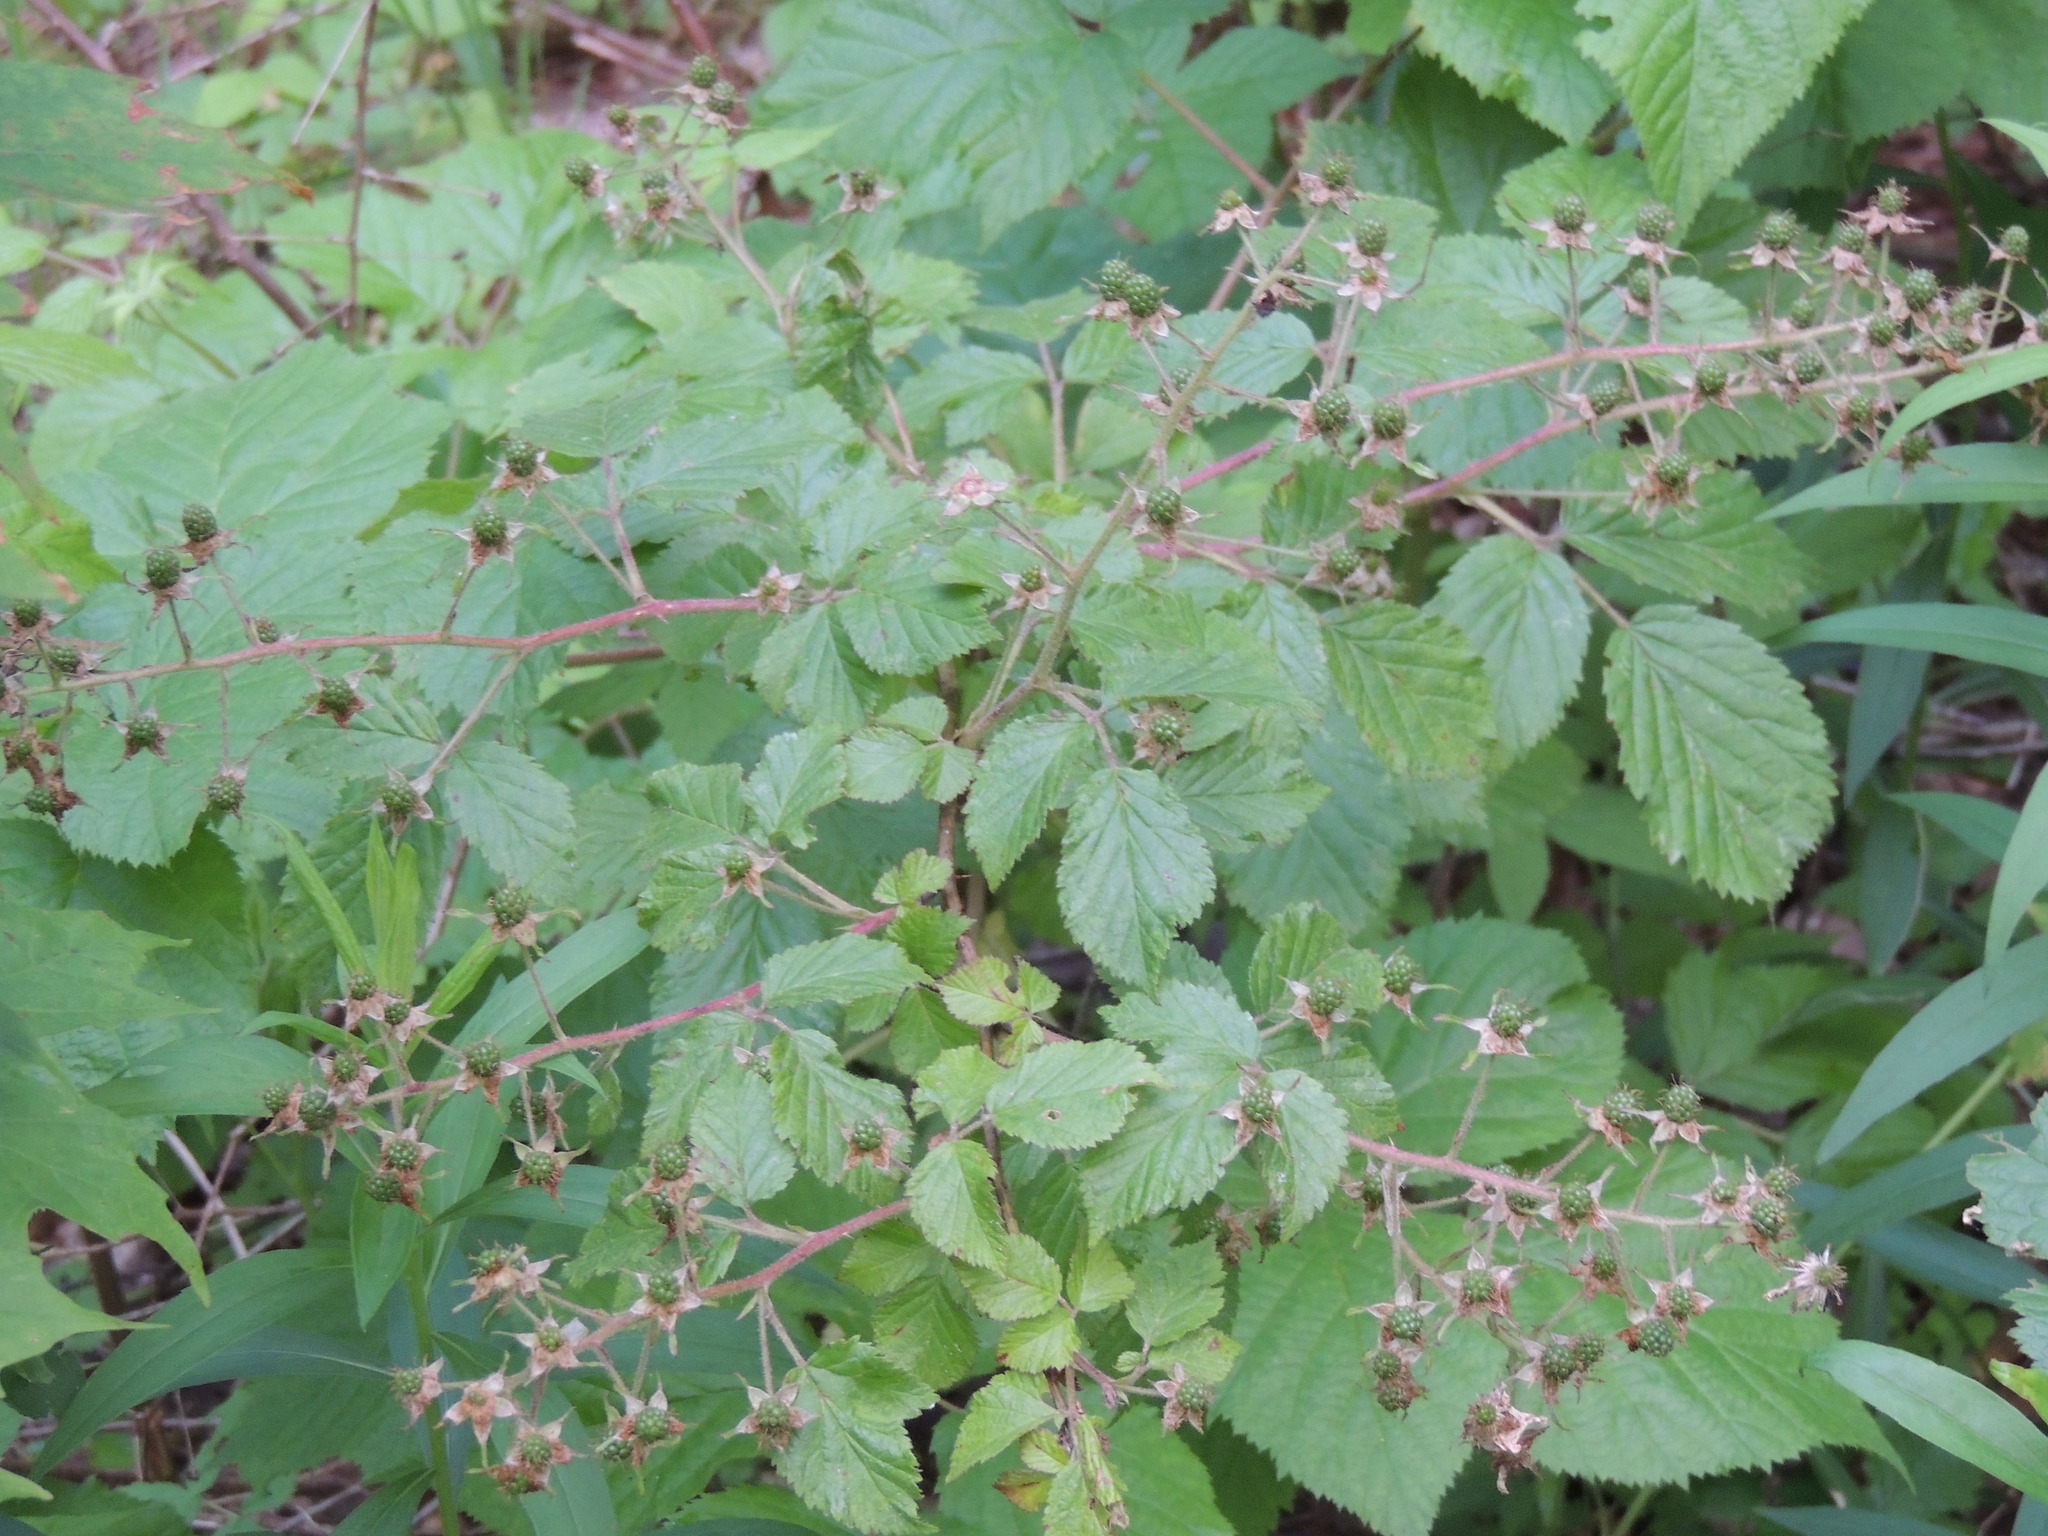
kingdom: Plantae
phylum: Tracheophyta
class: Magnoliopsida
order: Rosales
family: Rosaceae
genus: Rubus
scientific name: Rubus allegheniensis
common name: Allegheny blackberry
